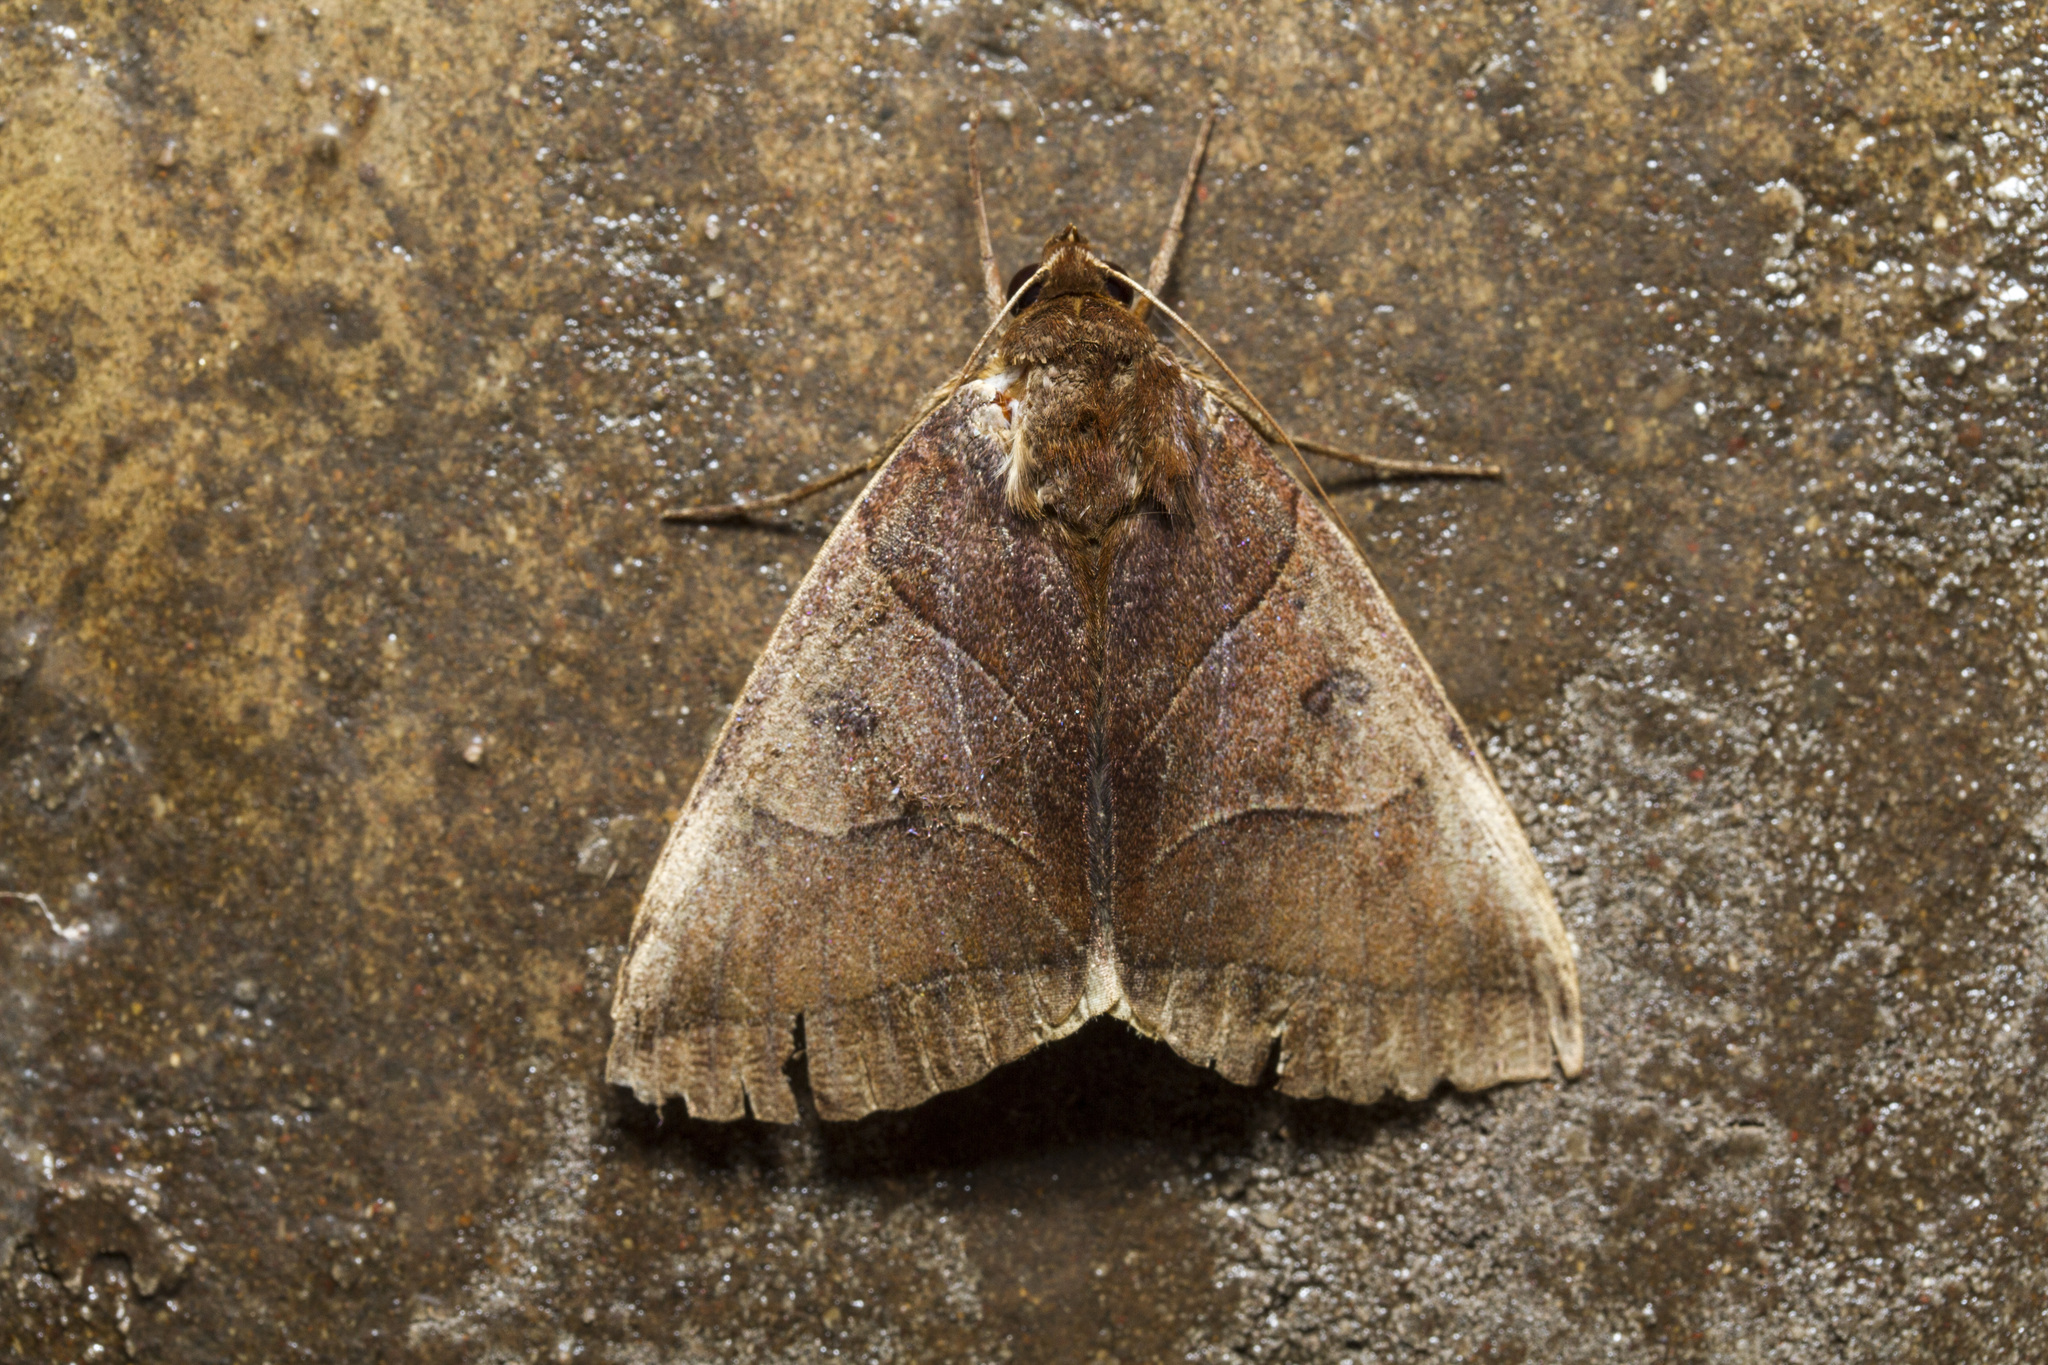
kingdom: Animalia
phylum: Arthropoda
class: Insecta
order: Lepidoptera
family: Erebidae
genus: Artena
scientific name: Artena submira
